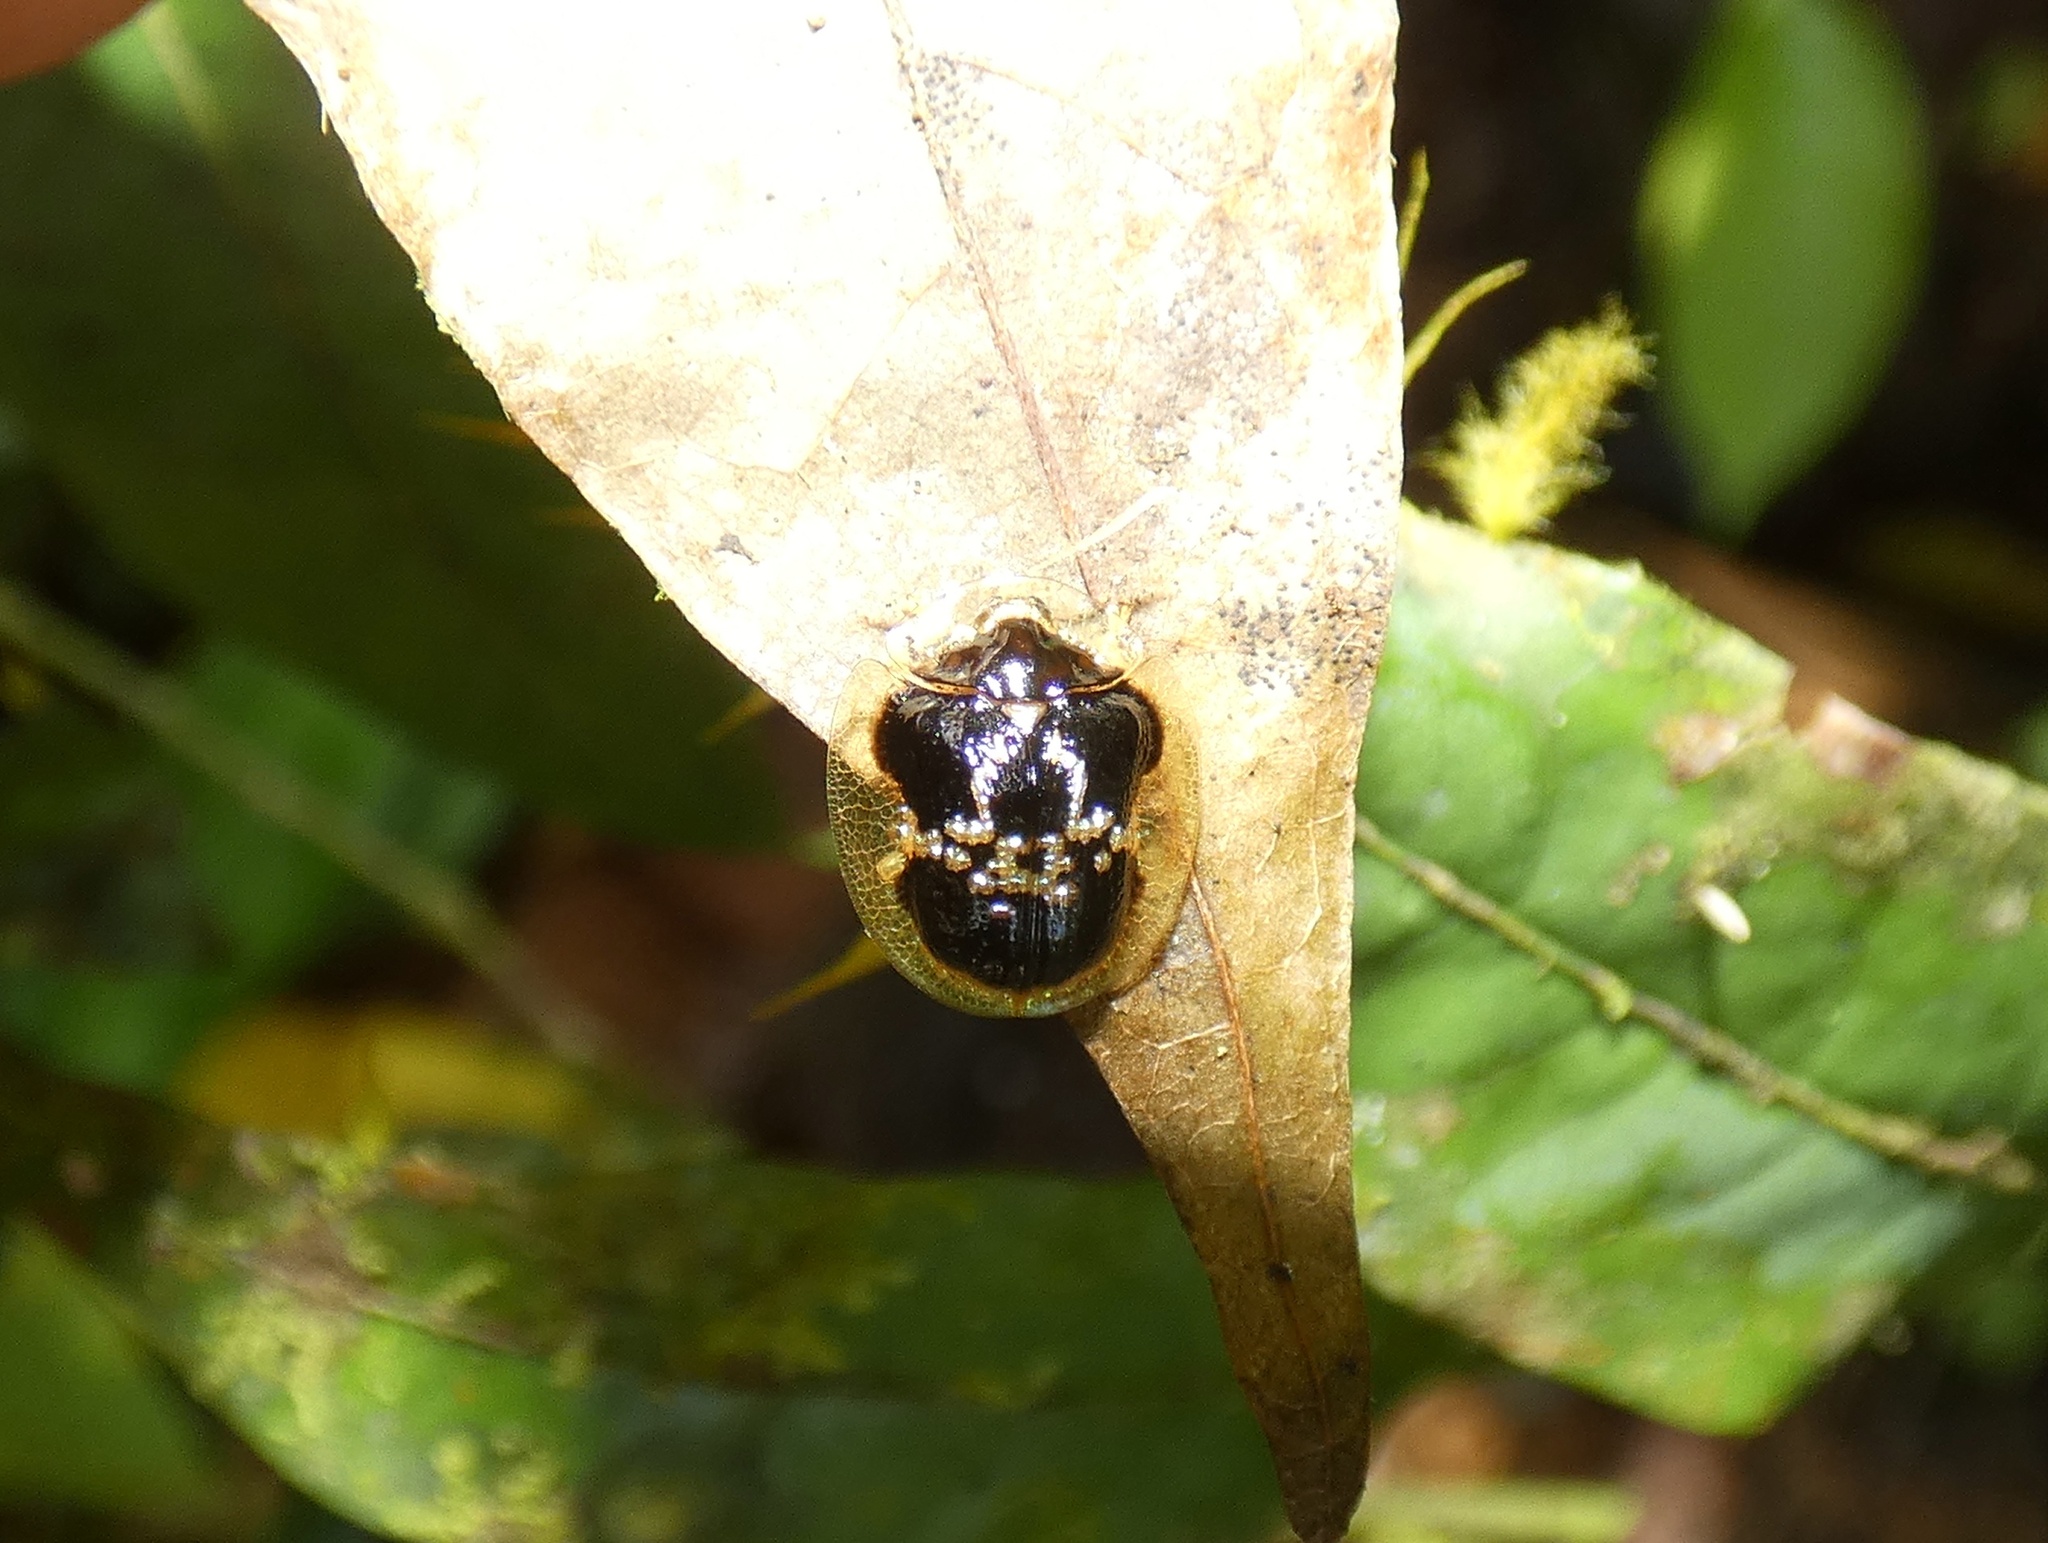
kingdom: Animalia
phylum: Arthropoda
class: Insecta
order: Coleoptera
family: Chrysomelidae
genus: Microctenochira
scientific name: Microctenochira cruxflava
